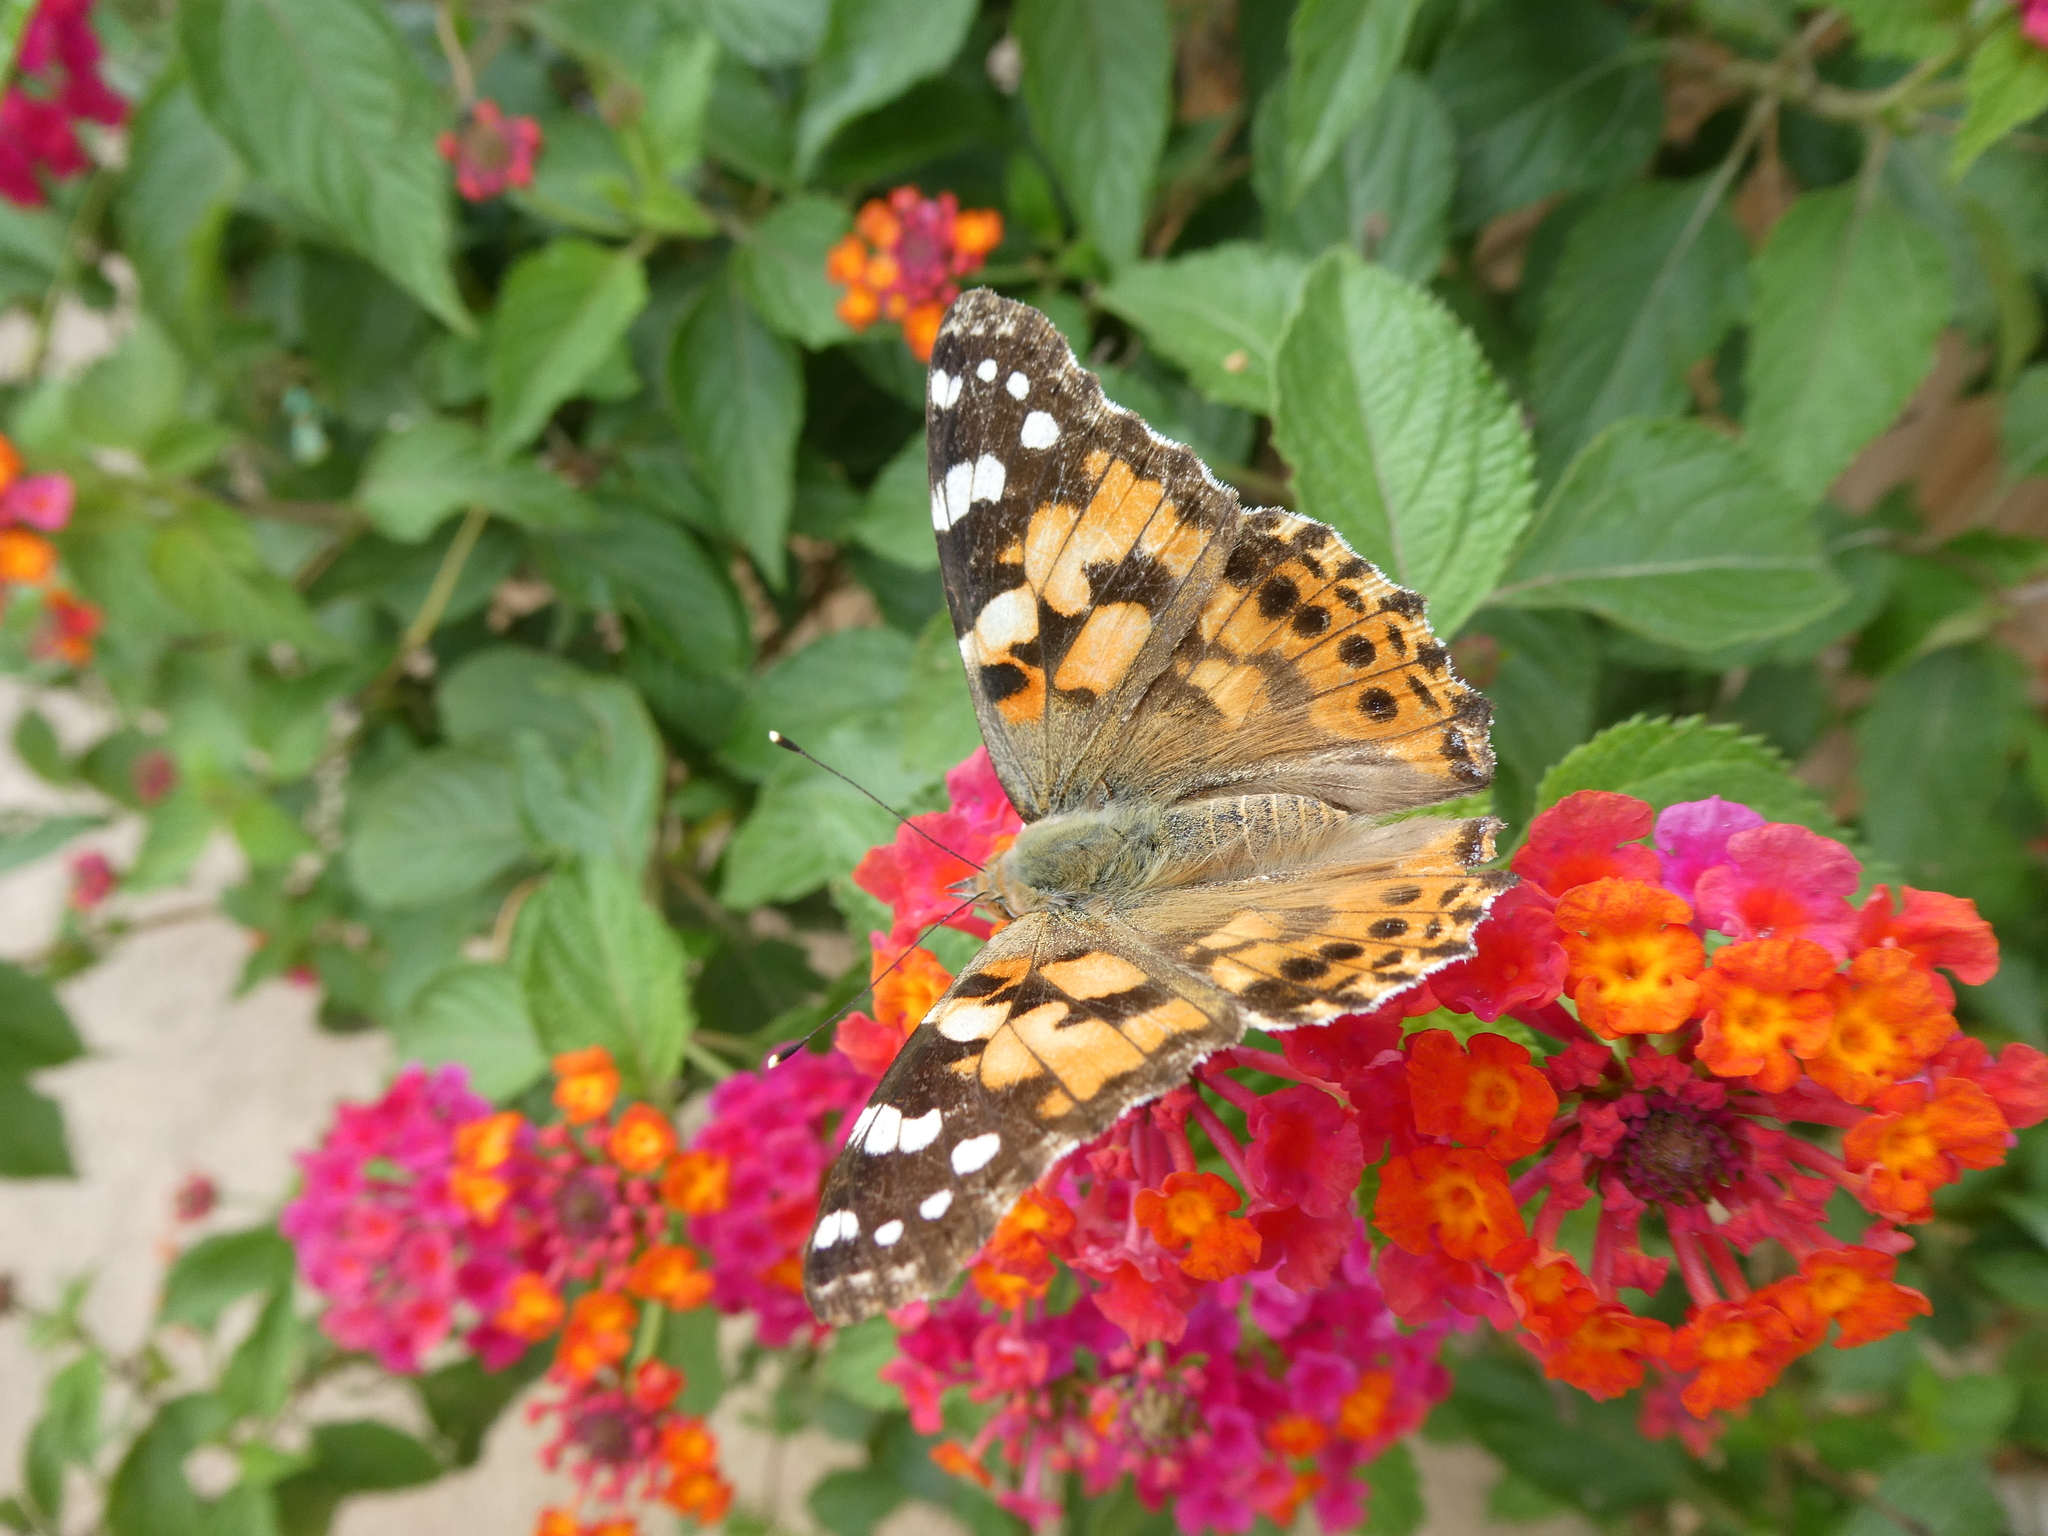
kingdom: Animalia
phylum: Arthropoda
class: Insecta
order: Lepidoptera
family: Nymphalidae
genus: Vanessa
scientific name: Vanessa cardui
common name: Painted lady
